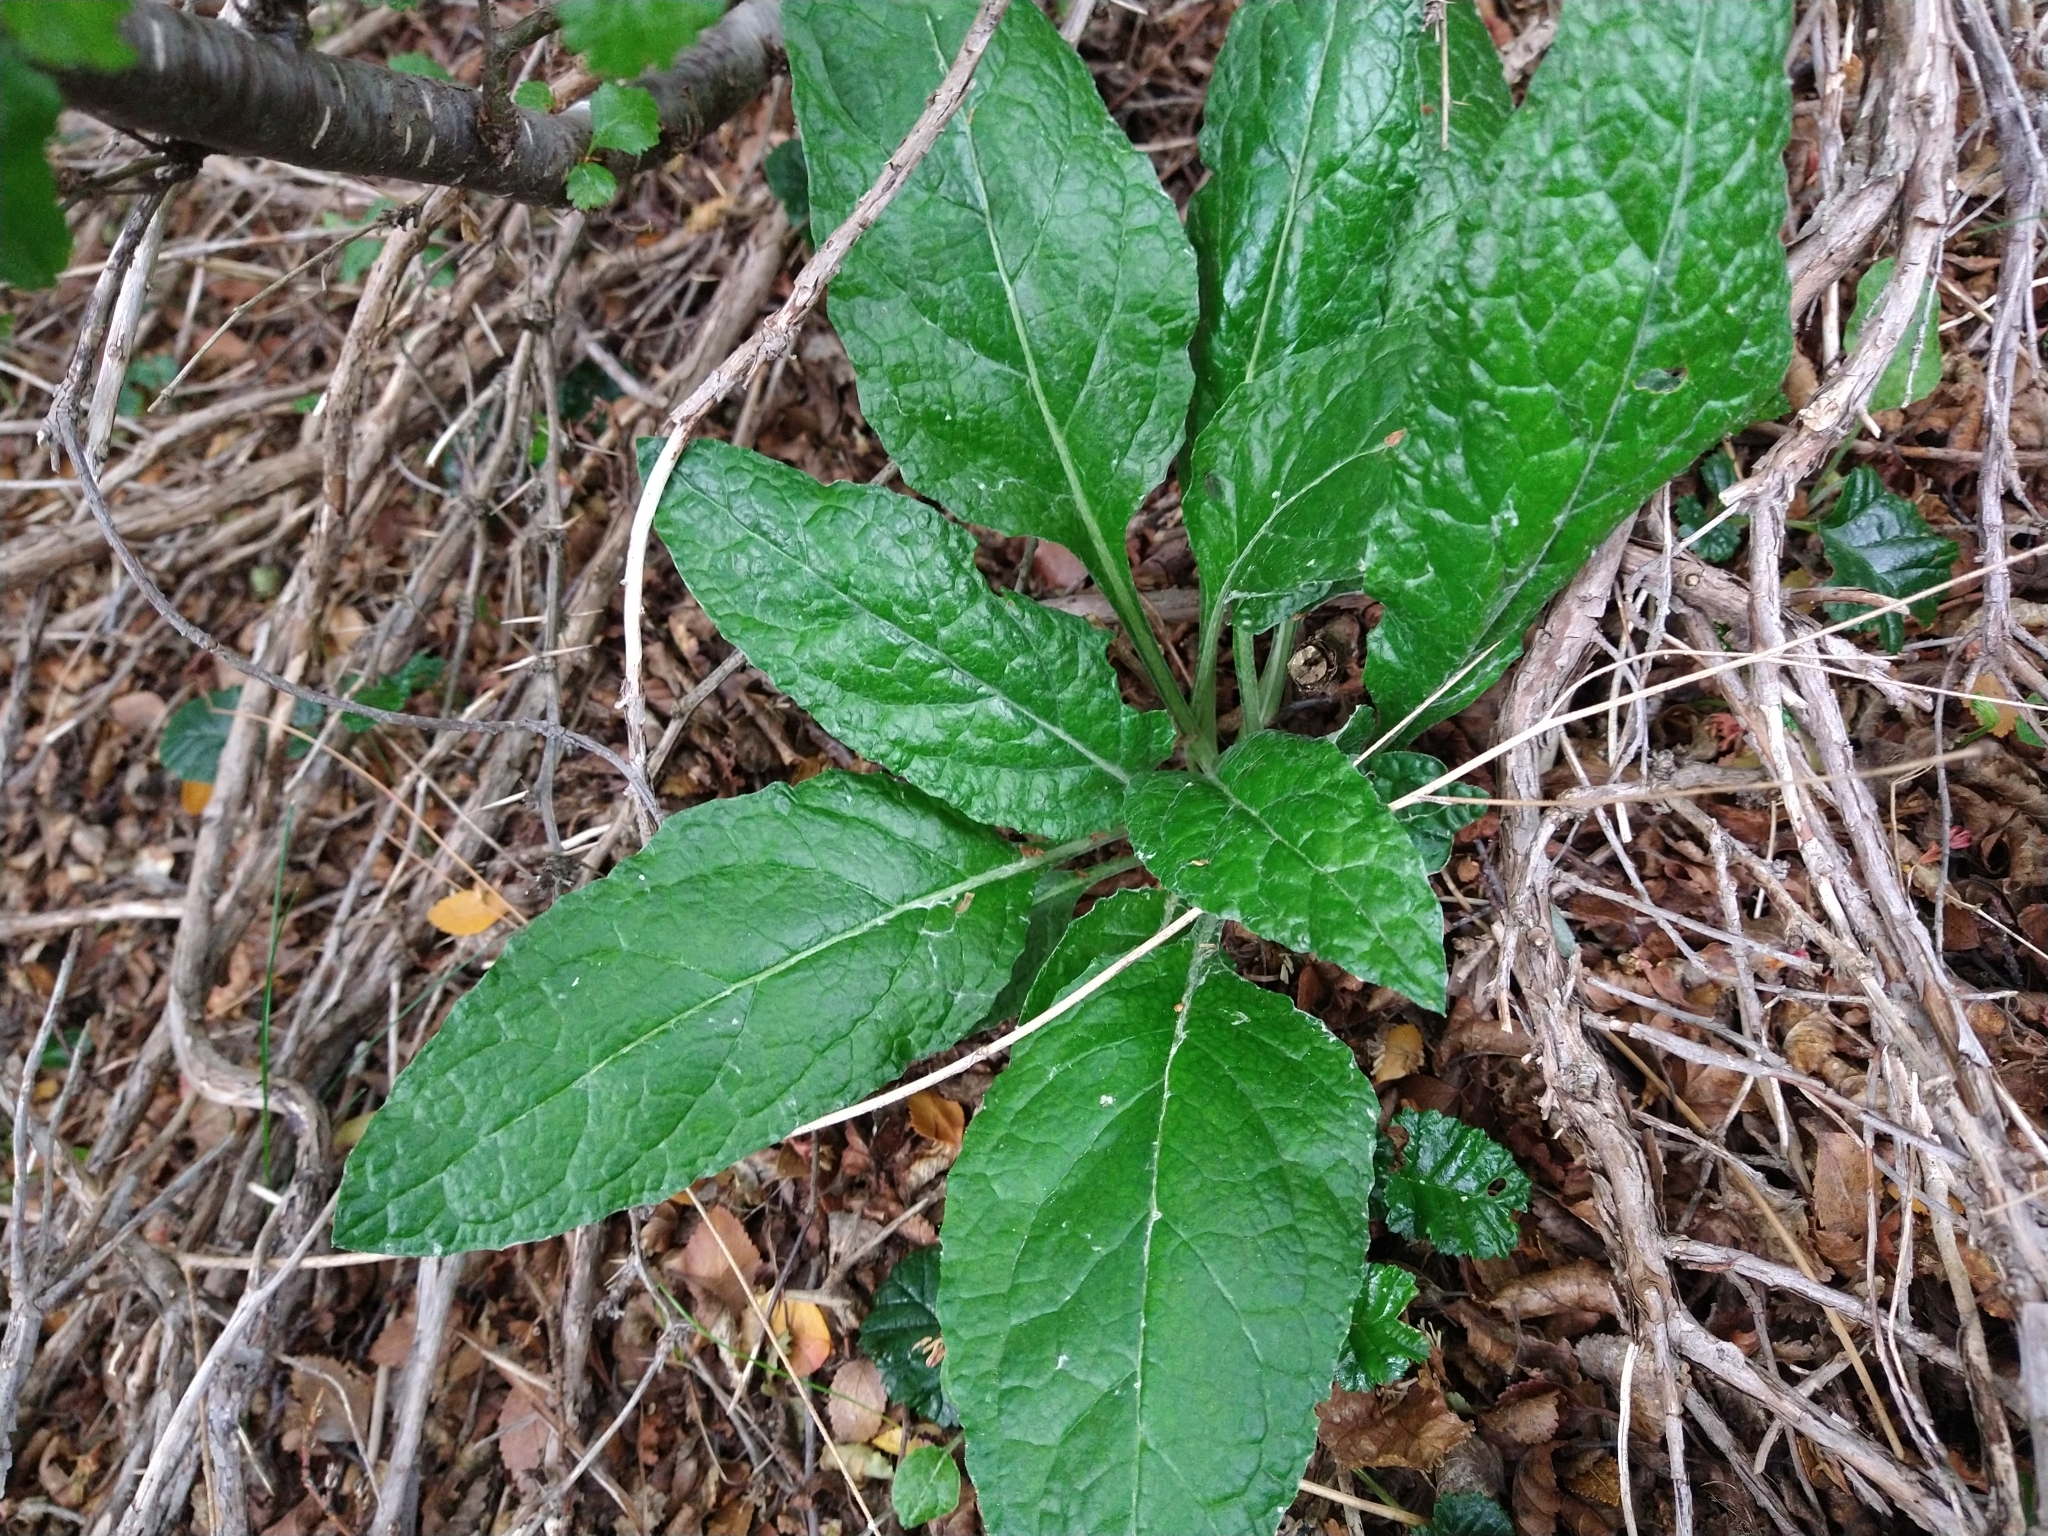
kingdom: Plantae
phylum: Tracheophyta
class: Magnoliopsida
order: Asterales
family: Asteraceae
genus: Adenocaulon
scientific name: Adenocaulon chilense
